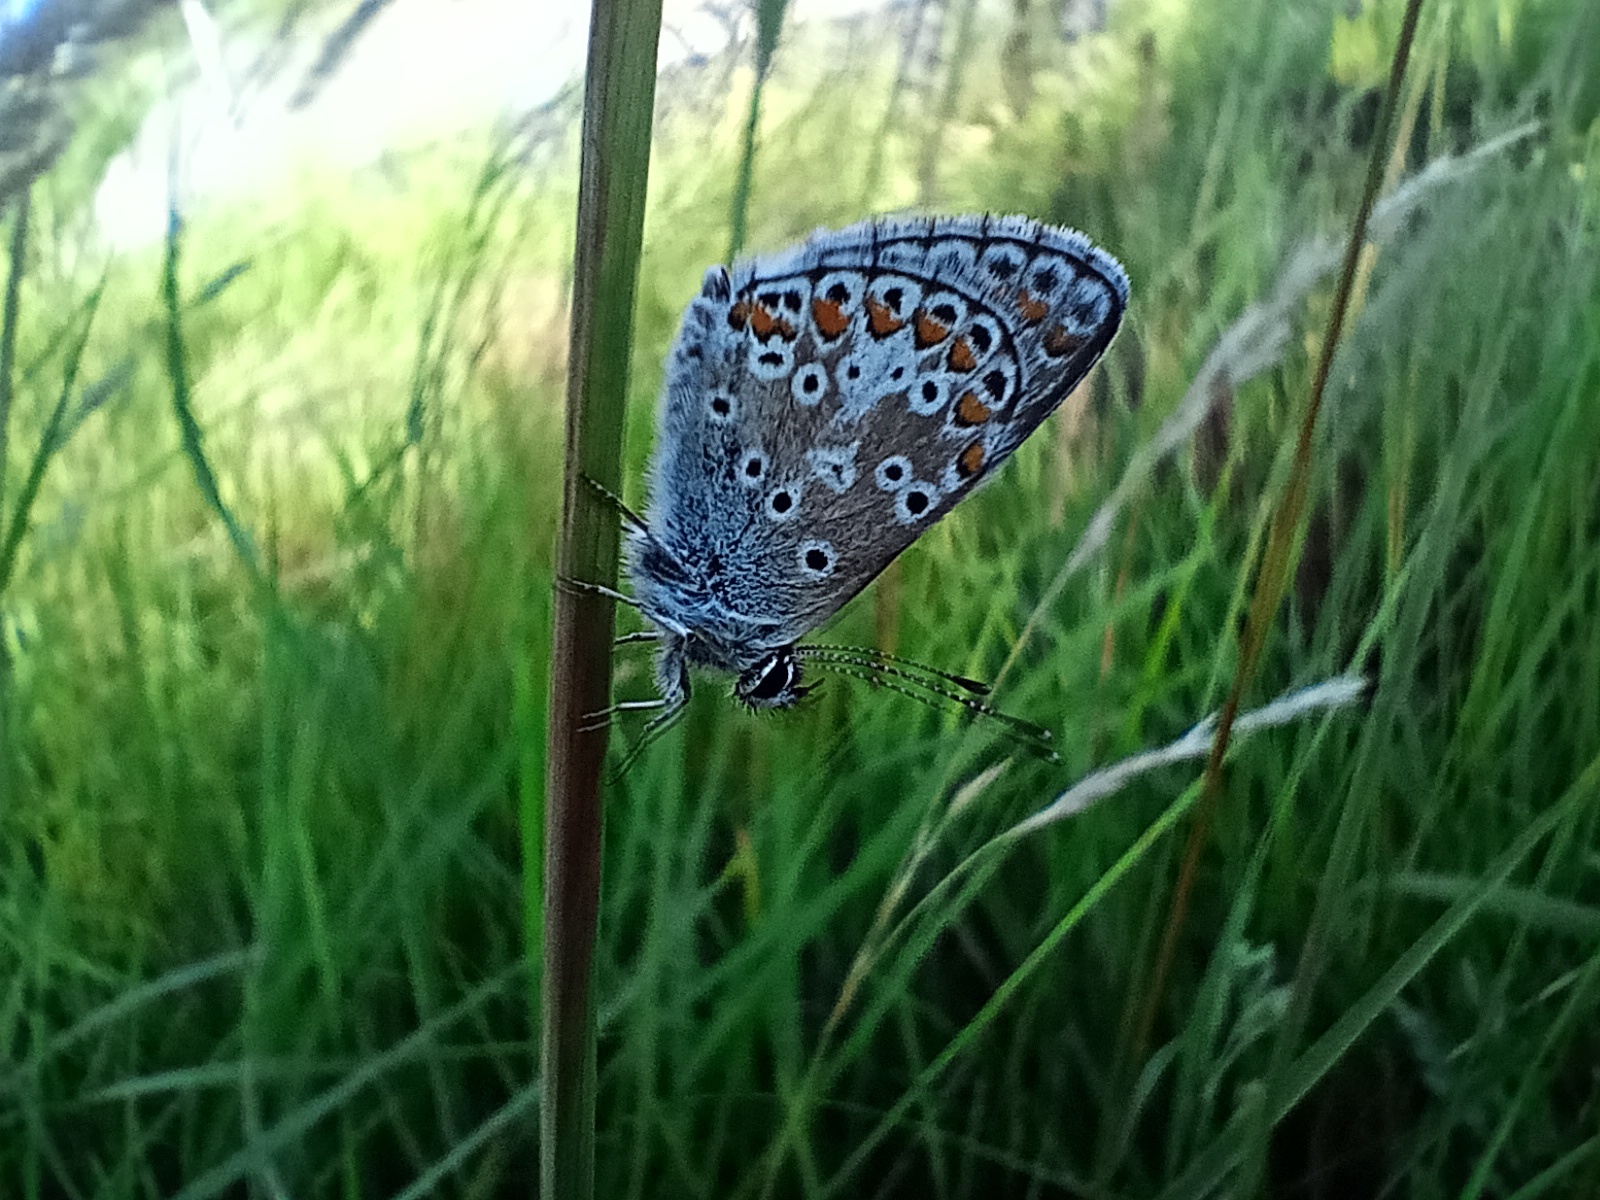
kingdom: Animalia
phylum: Arthropoda
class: Insecta
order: Lepidoptera
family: Lycaenidae
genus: Aricia
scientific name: Aricia agestis
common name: Brown argus
